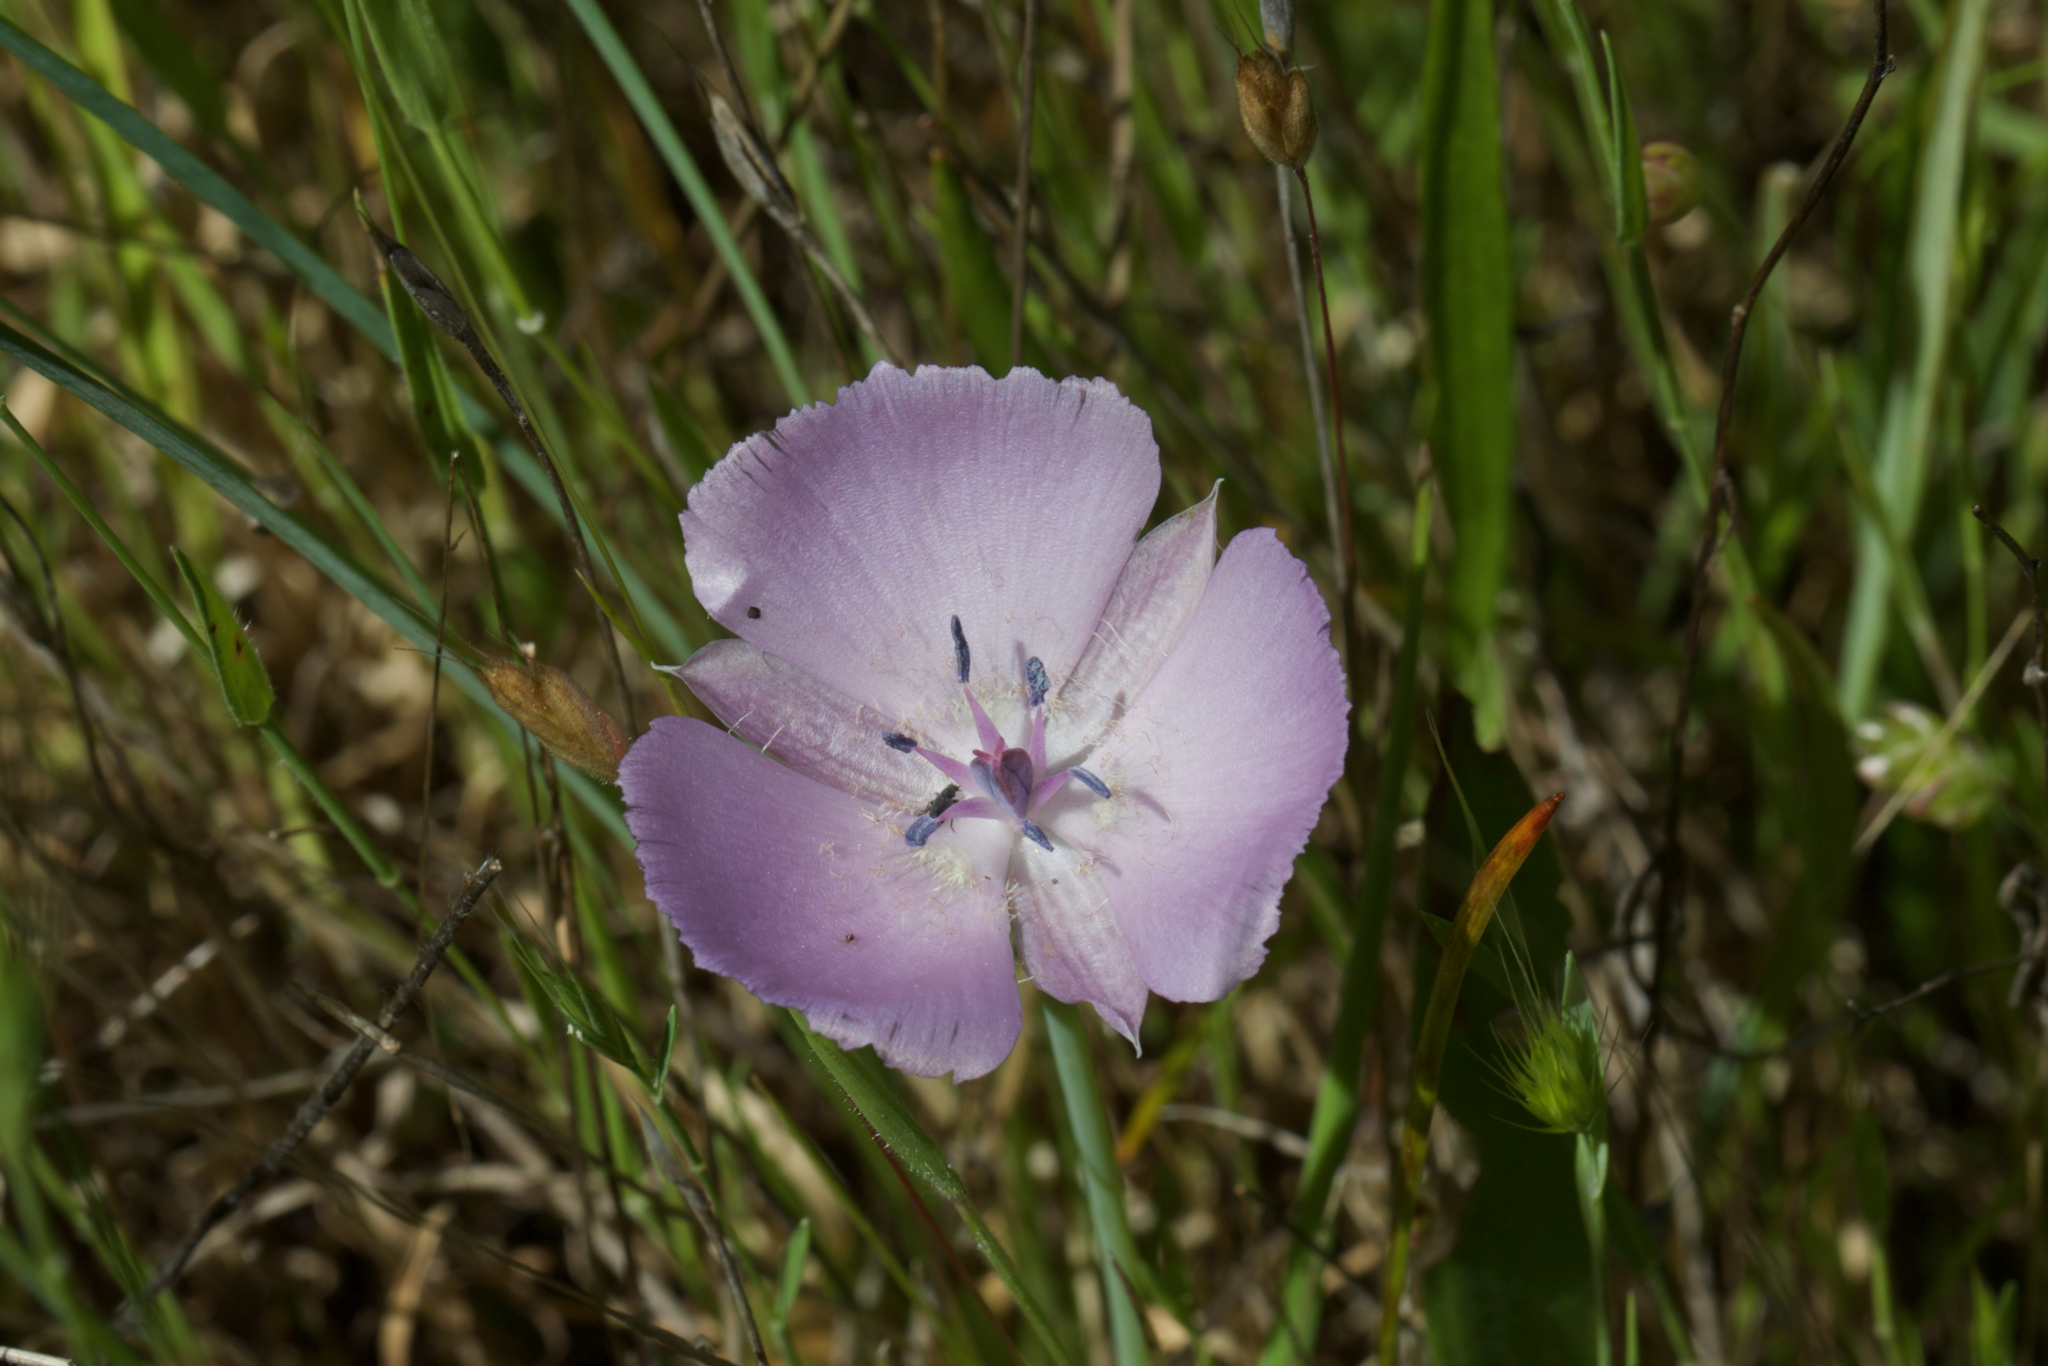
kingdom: Plantae
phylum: Tracheophyta
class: Liliopsida
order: Liliales
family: Liliaceae
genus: Calochortus
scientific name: Calochortus uniflorus
